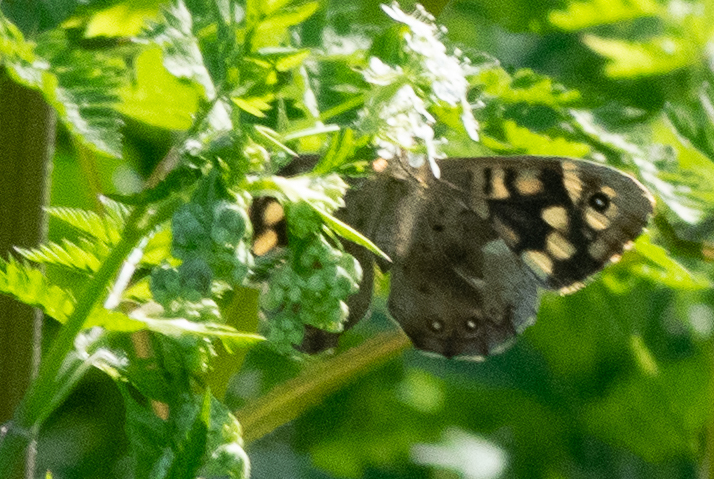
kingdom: Animalia
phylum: Arthropoda
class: Insecta
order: Lepidoptera
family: Nymphalidae
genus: Pararge
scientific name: Pararge aegeria
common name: Speckled wood
